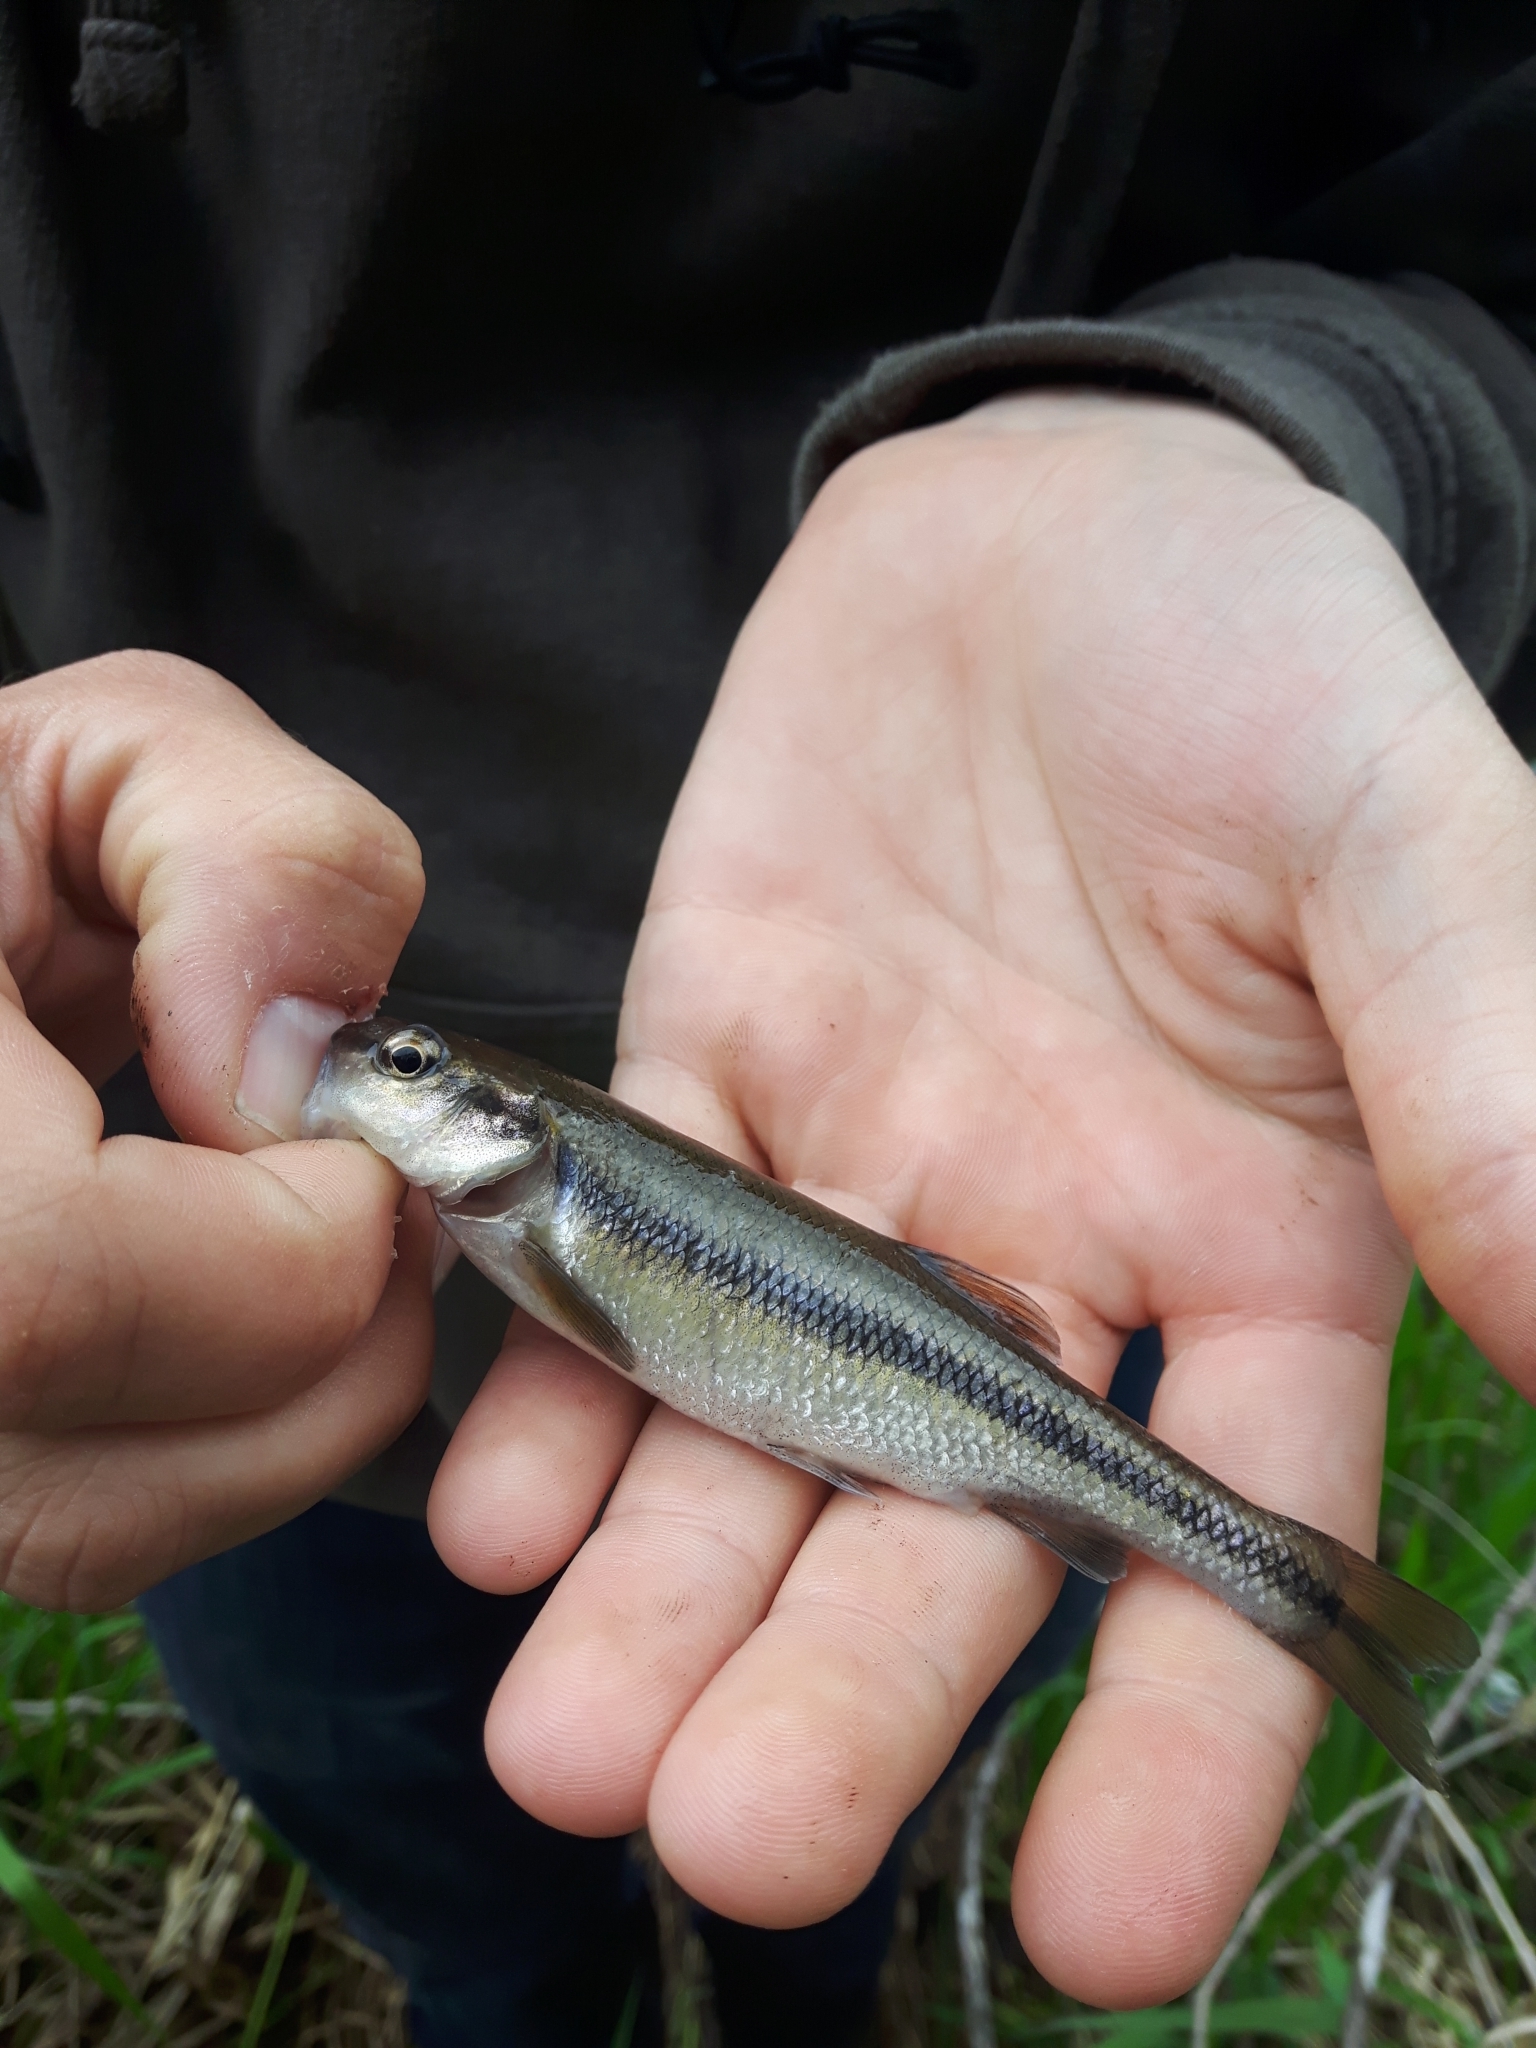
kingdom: Animalia
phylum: Chordata
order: Cypriniformes
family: Cyprinidae
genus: Semotilus
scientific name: Semotilus atromaculatus
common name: Creek chub
